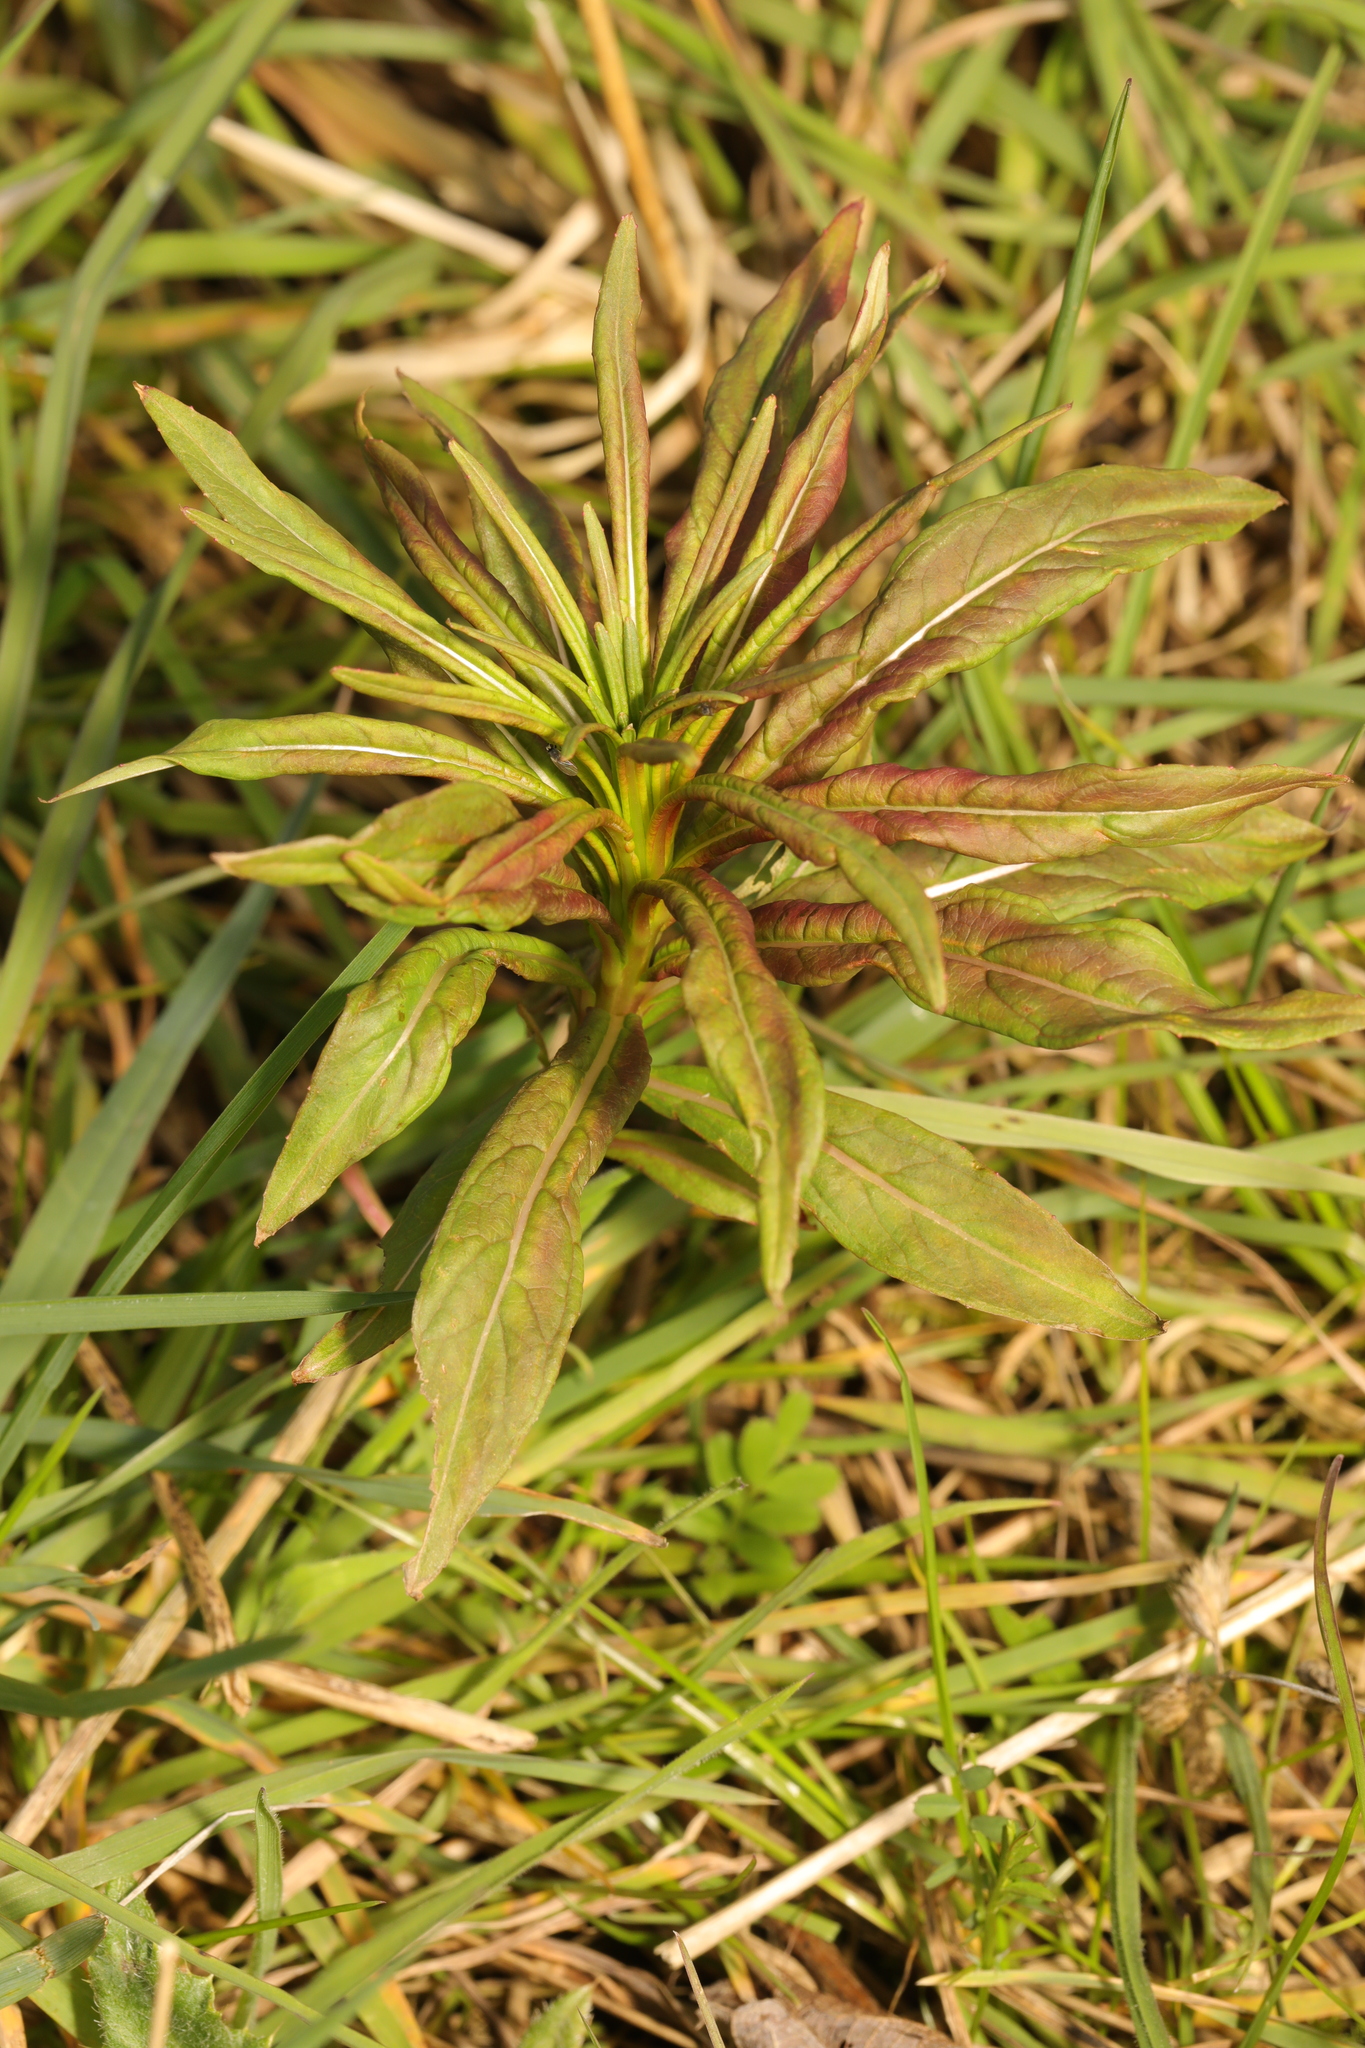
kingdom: Plantae
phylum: Tracheophyta
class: Magnoliopsida
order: Myrtales
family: Onagraceae
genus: Chamaenerion
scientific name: Chamaenerion angustifolium
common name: Fireweed
